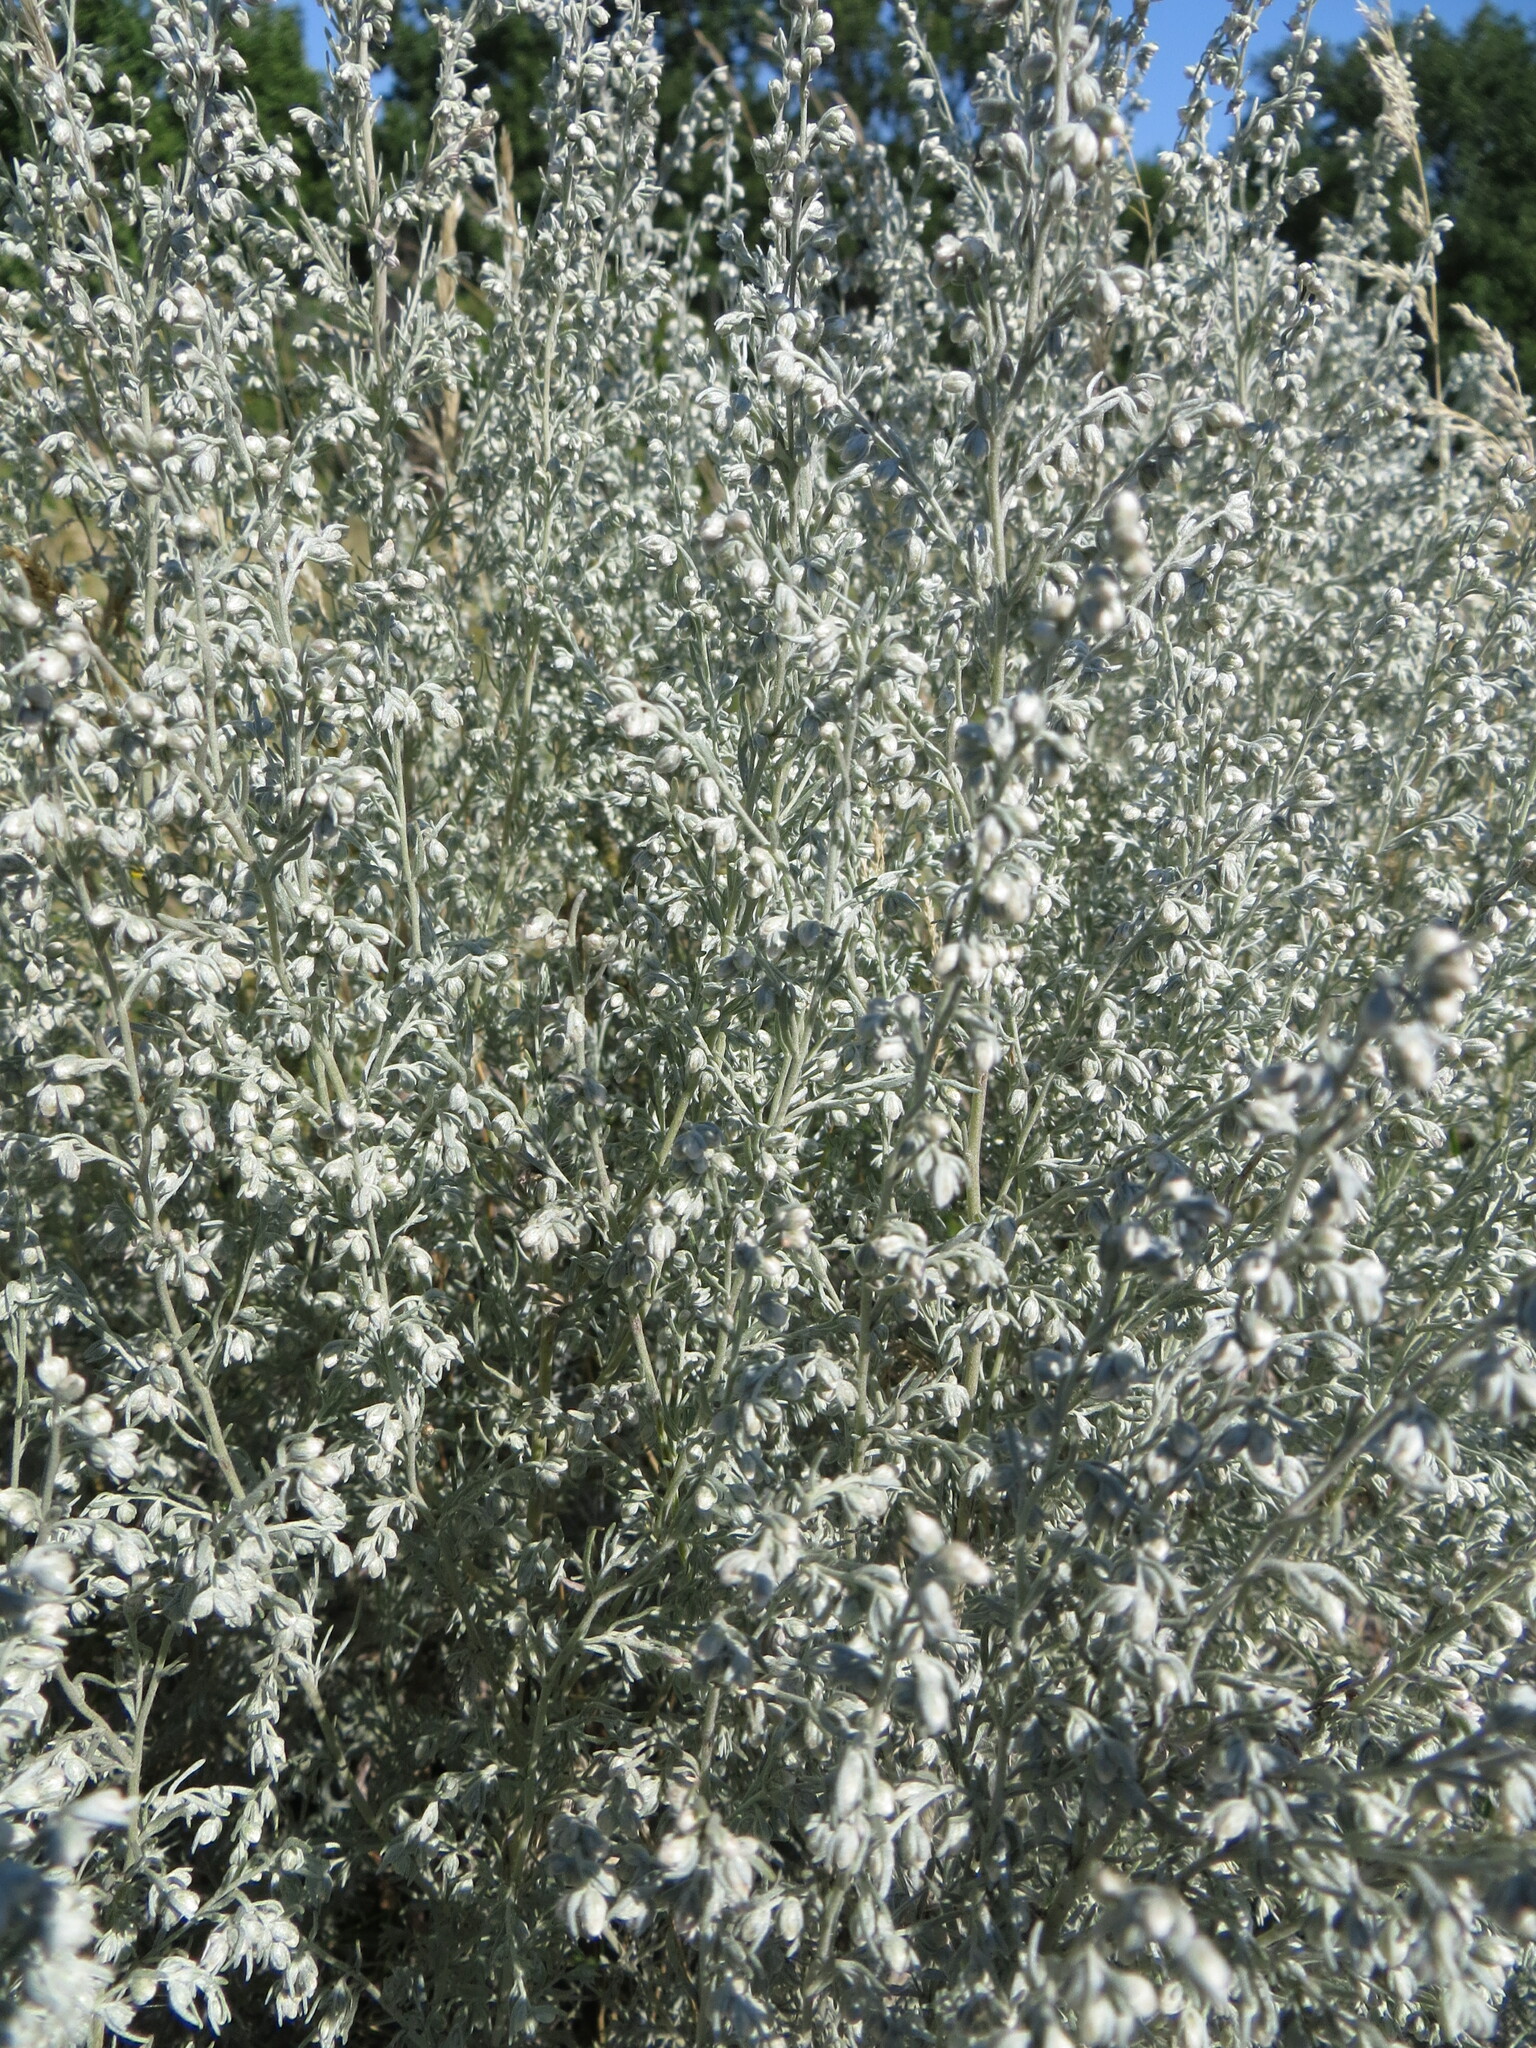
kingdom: Plantae
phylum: Tracheophyta
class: Magnoliopsida
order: Asterales
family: Asteraceae
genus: Artemisia
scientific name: Artemisia austriaca
